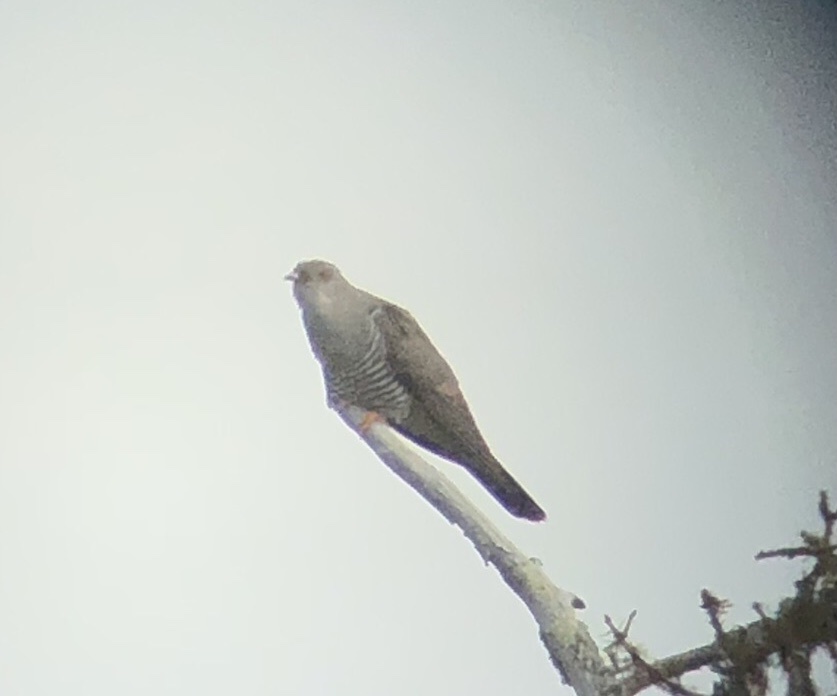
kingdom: Animalia
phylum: Chordata
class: Aves
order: Cuculiformes
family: Cuculidae
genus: Cuculus
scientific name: Cuculus canorus
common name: Common cuckoo
